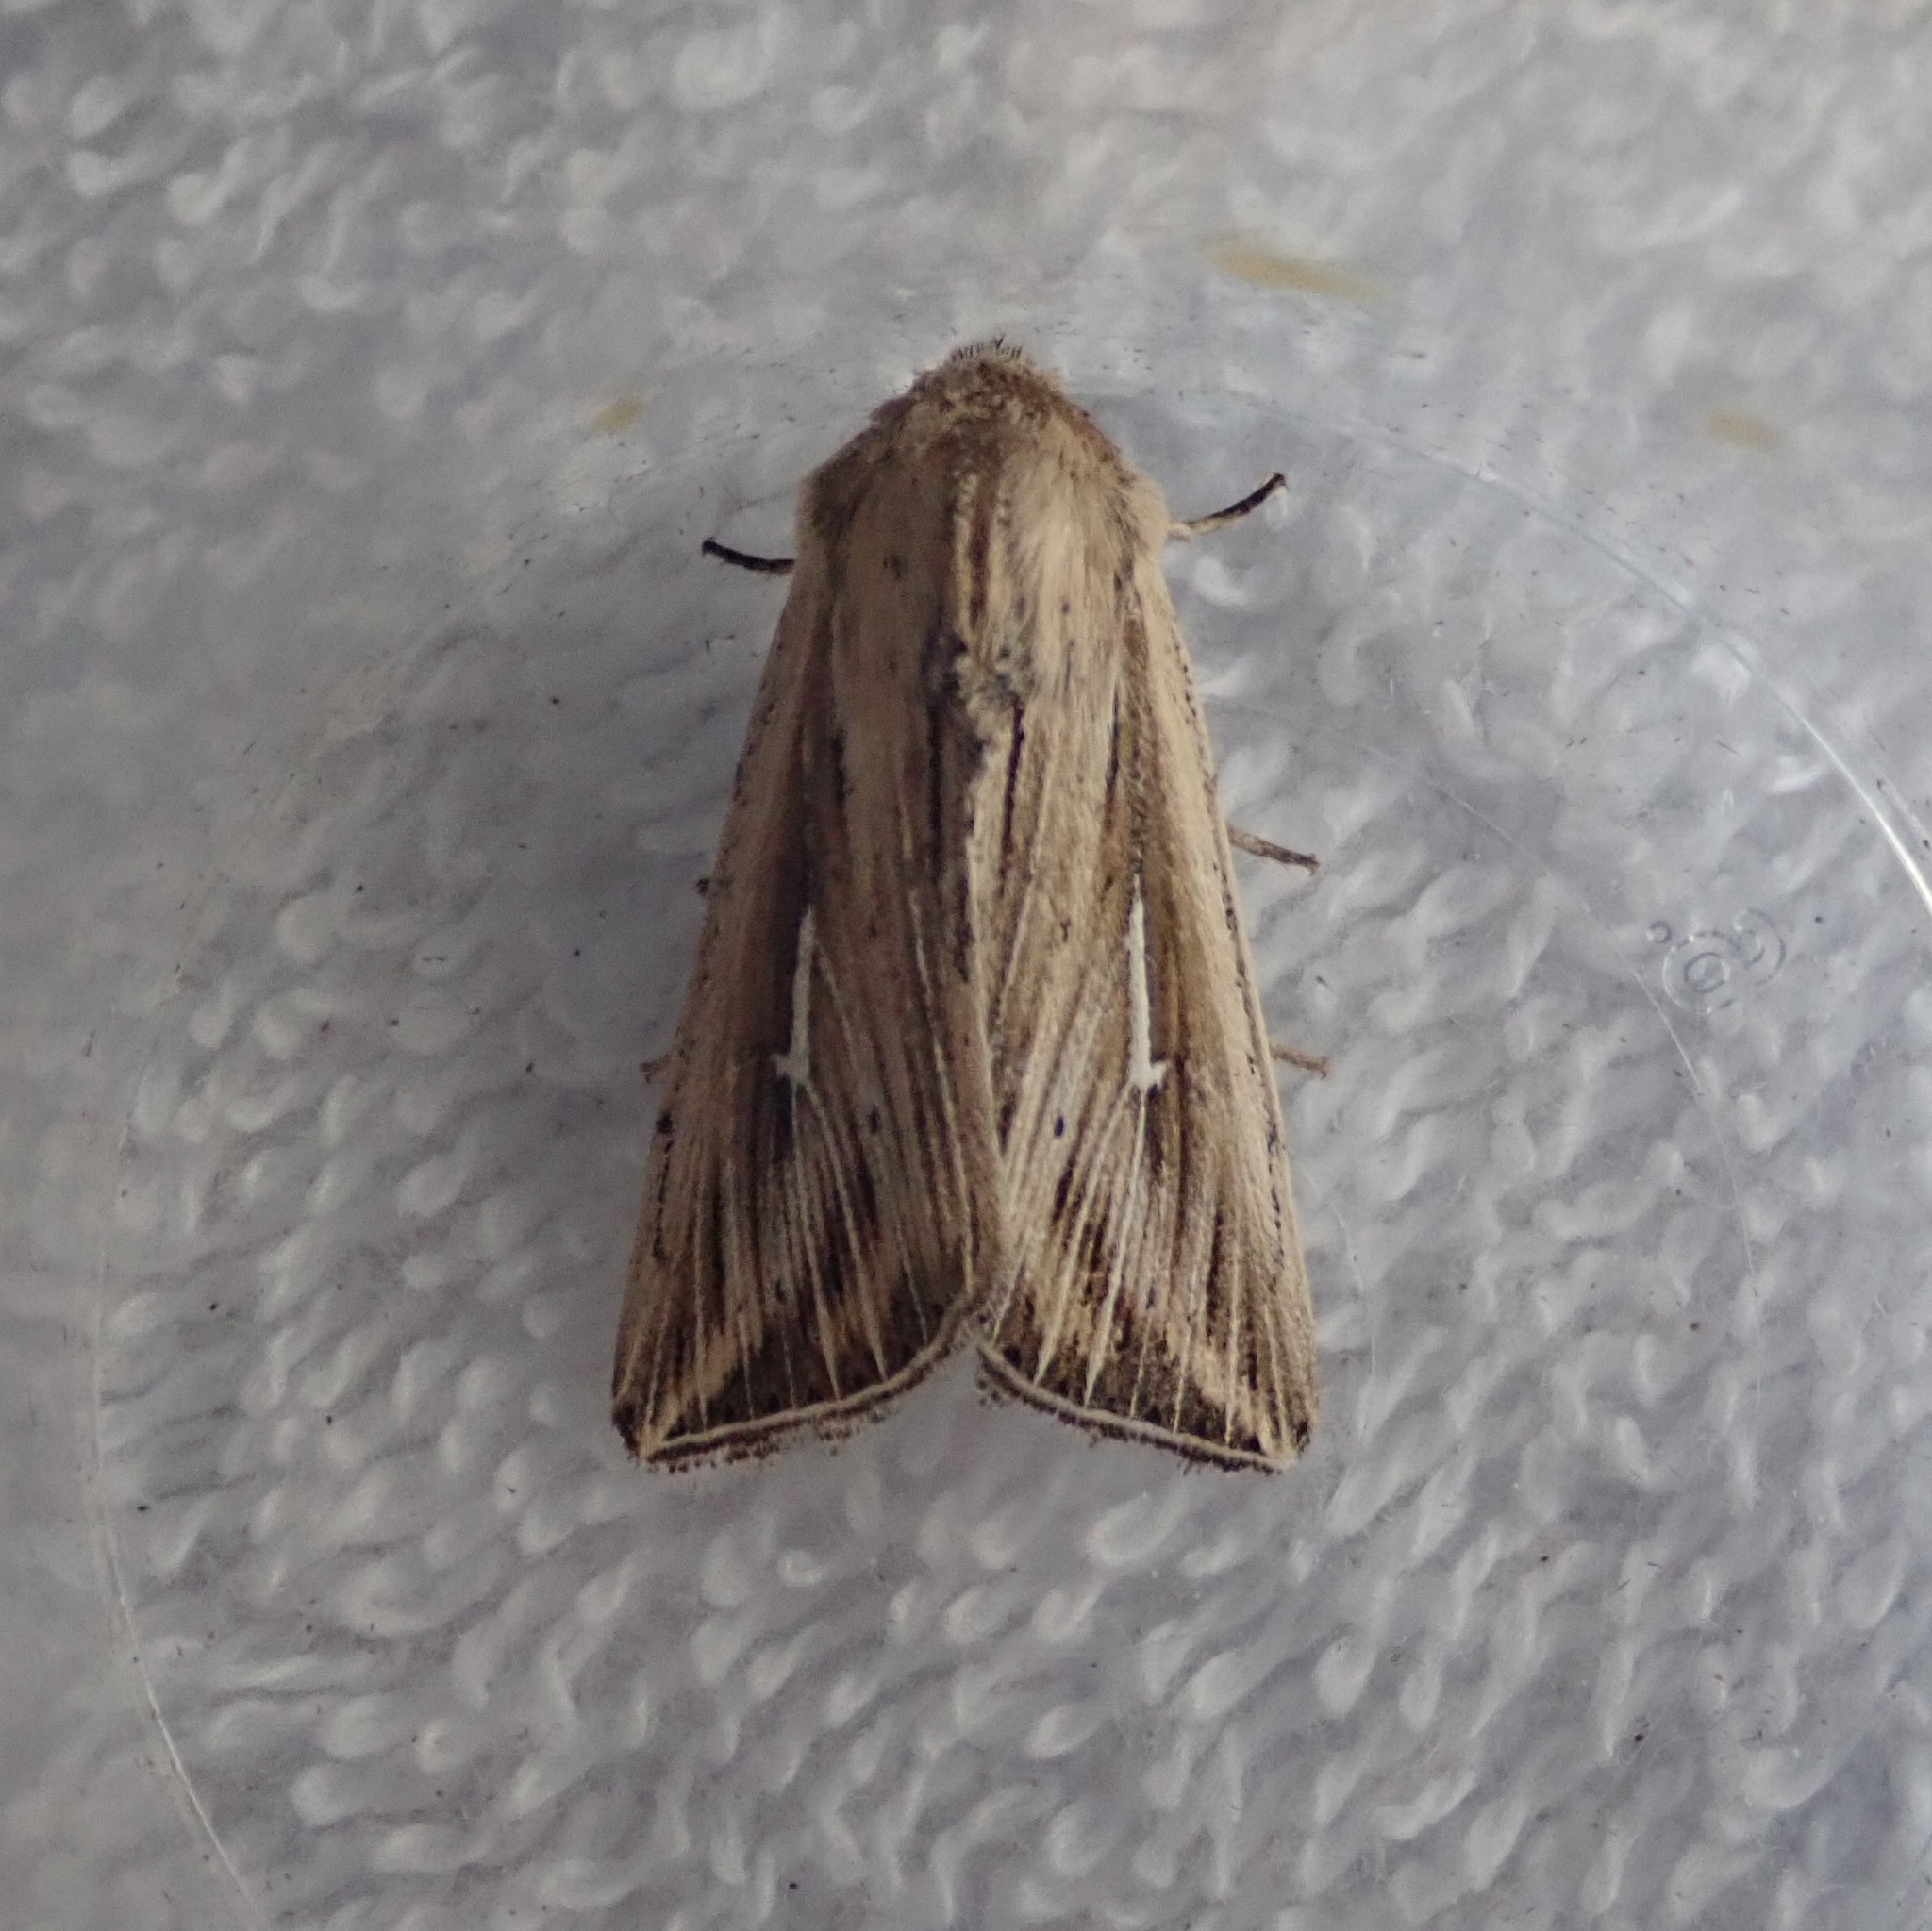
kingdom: Animalia
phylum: Arthropoda
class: Insecta
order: Lepidoptera
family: Noctuidae
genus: Mythimna
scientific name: Mythimna l-album
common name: L-album wainscot
